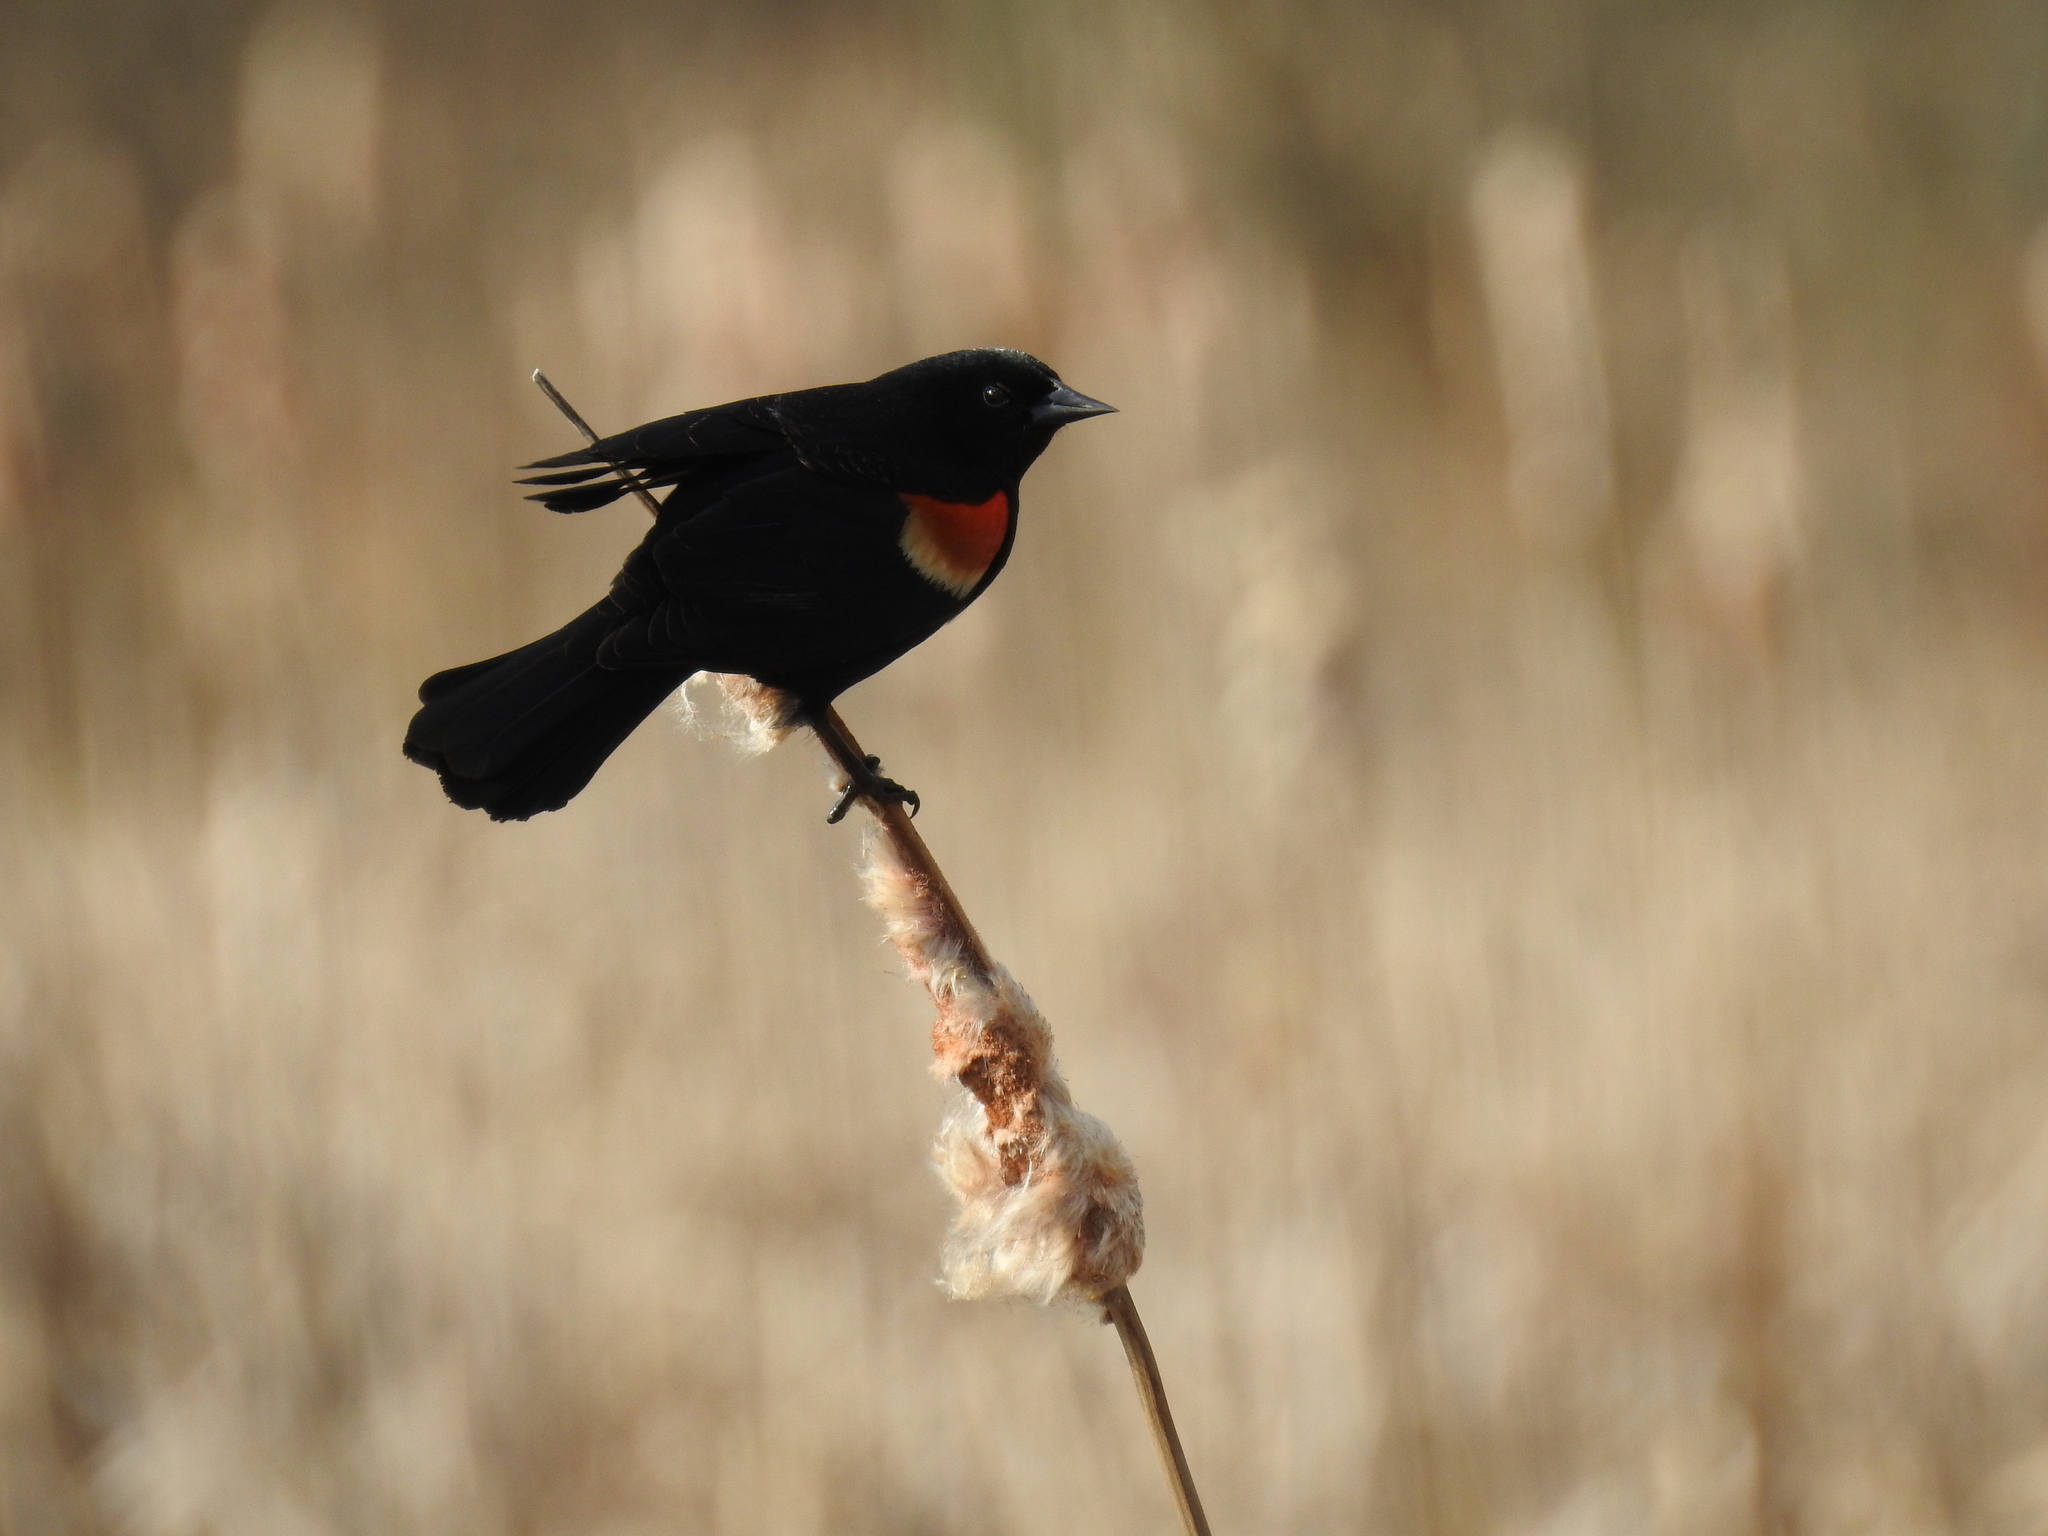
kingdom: Animalia
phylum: Chordata
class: Aves
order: Passeriformes
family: Icteridae
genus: Agelaius
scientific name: Agelaius phoeniceus
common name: Red-winged blackbird
